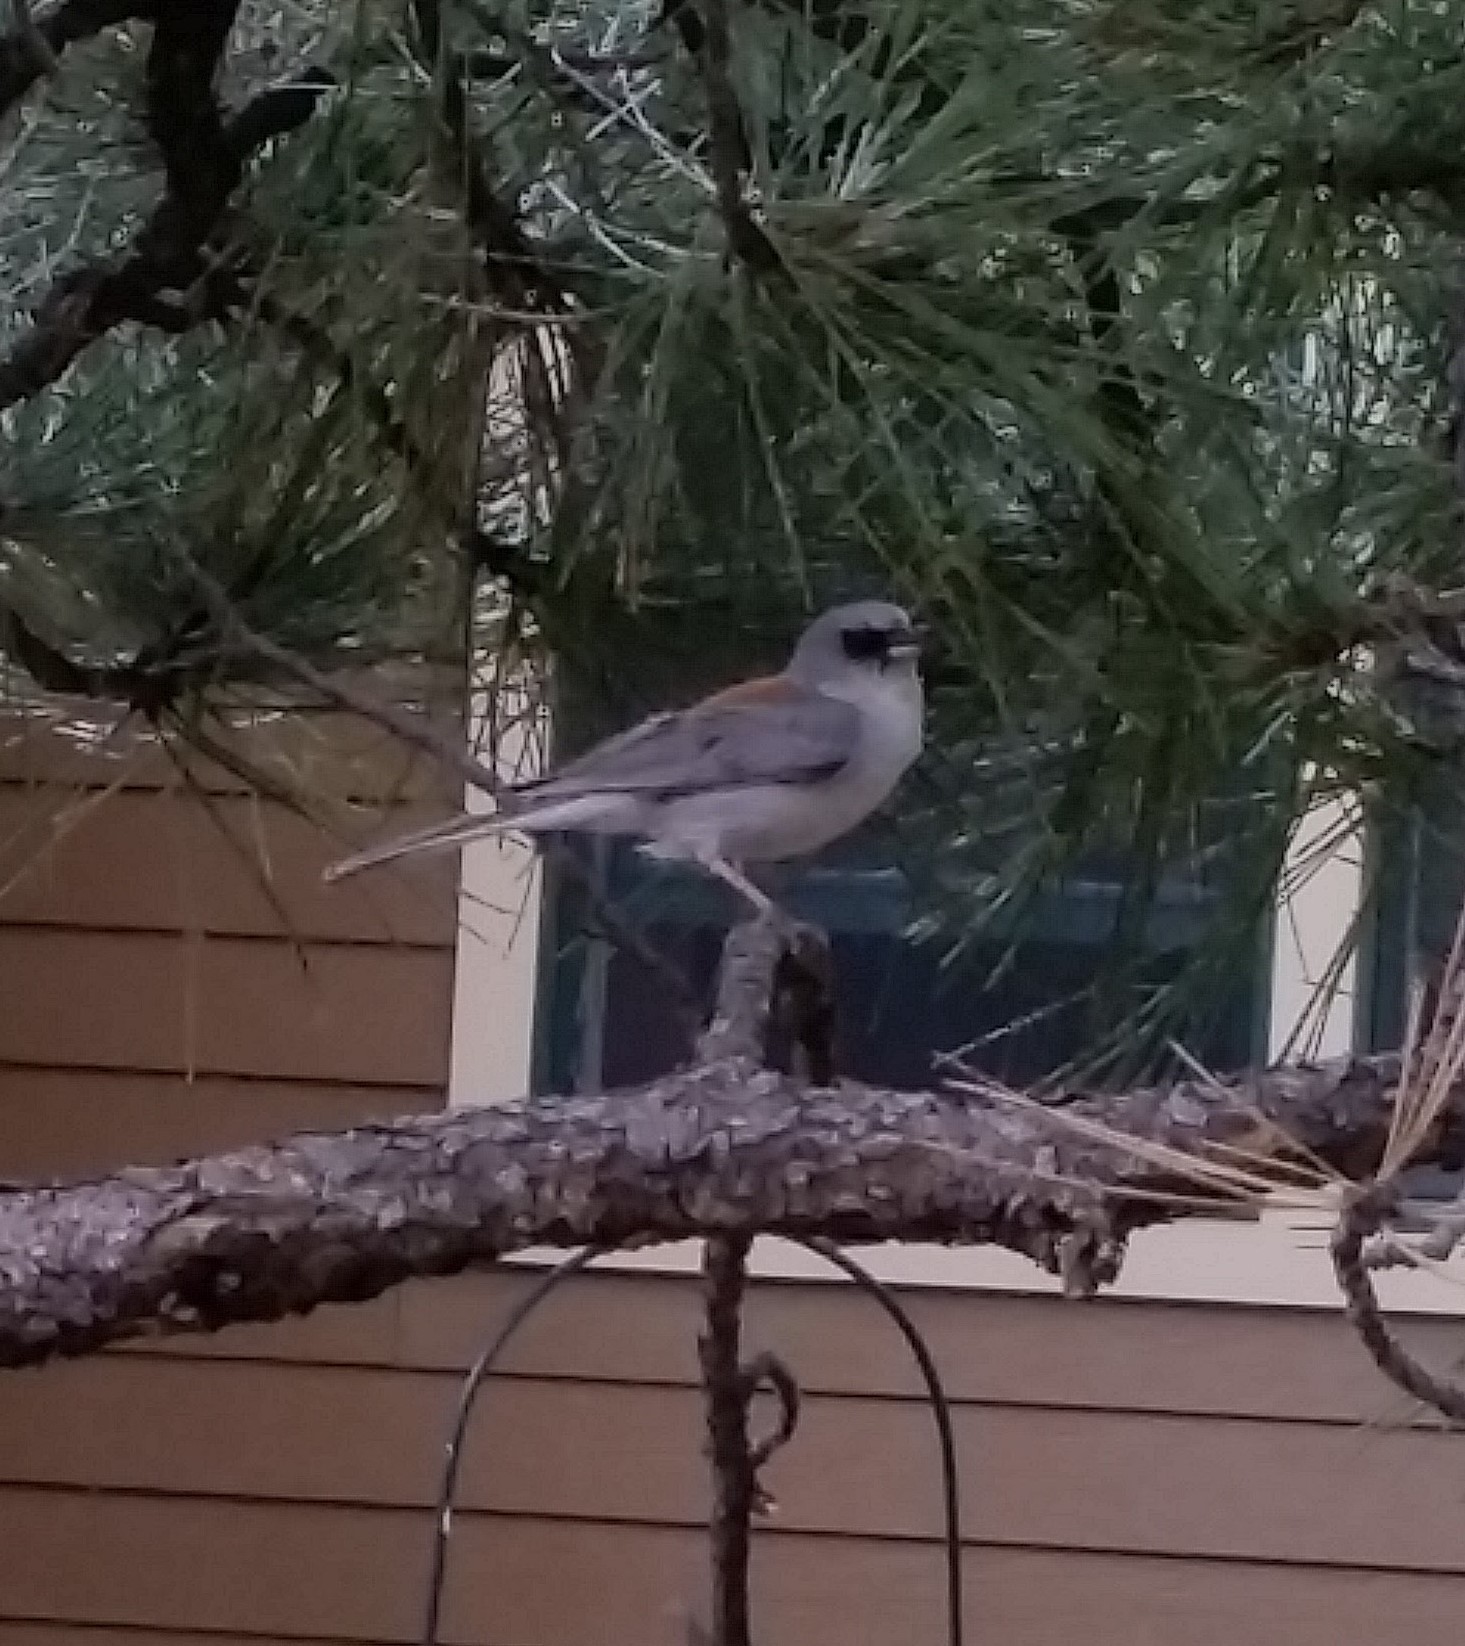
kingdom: Animalia
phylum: Chordata
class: Aves
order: Passeriformes
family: Passerellidae
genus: Junco
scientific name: Junco hyemalis
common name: Dark-eyed junco
